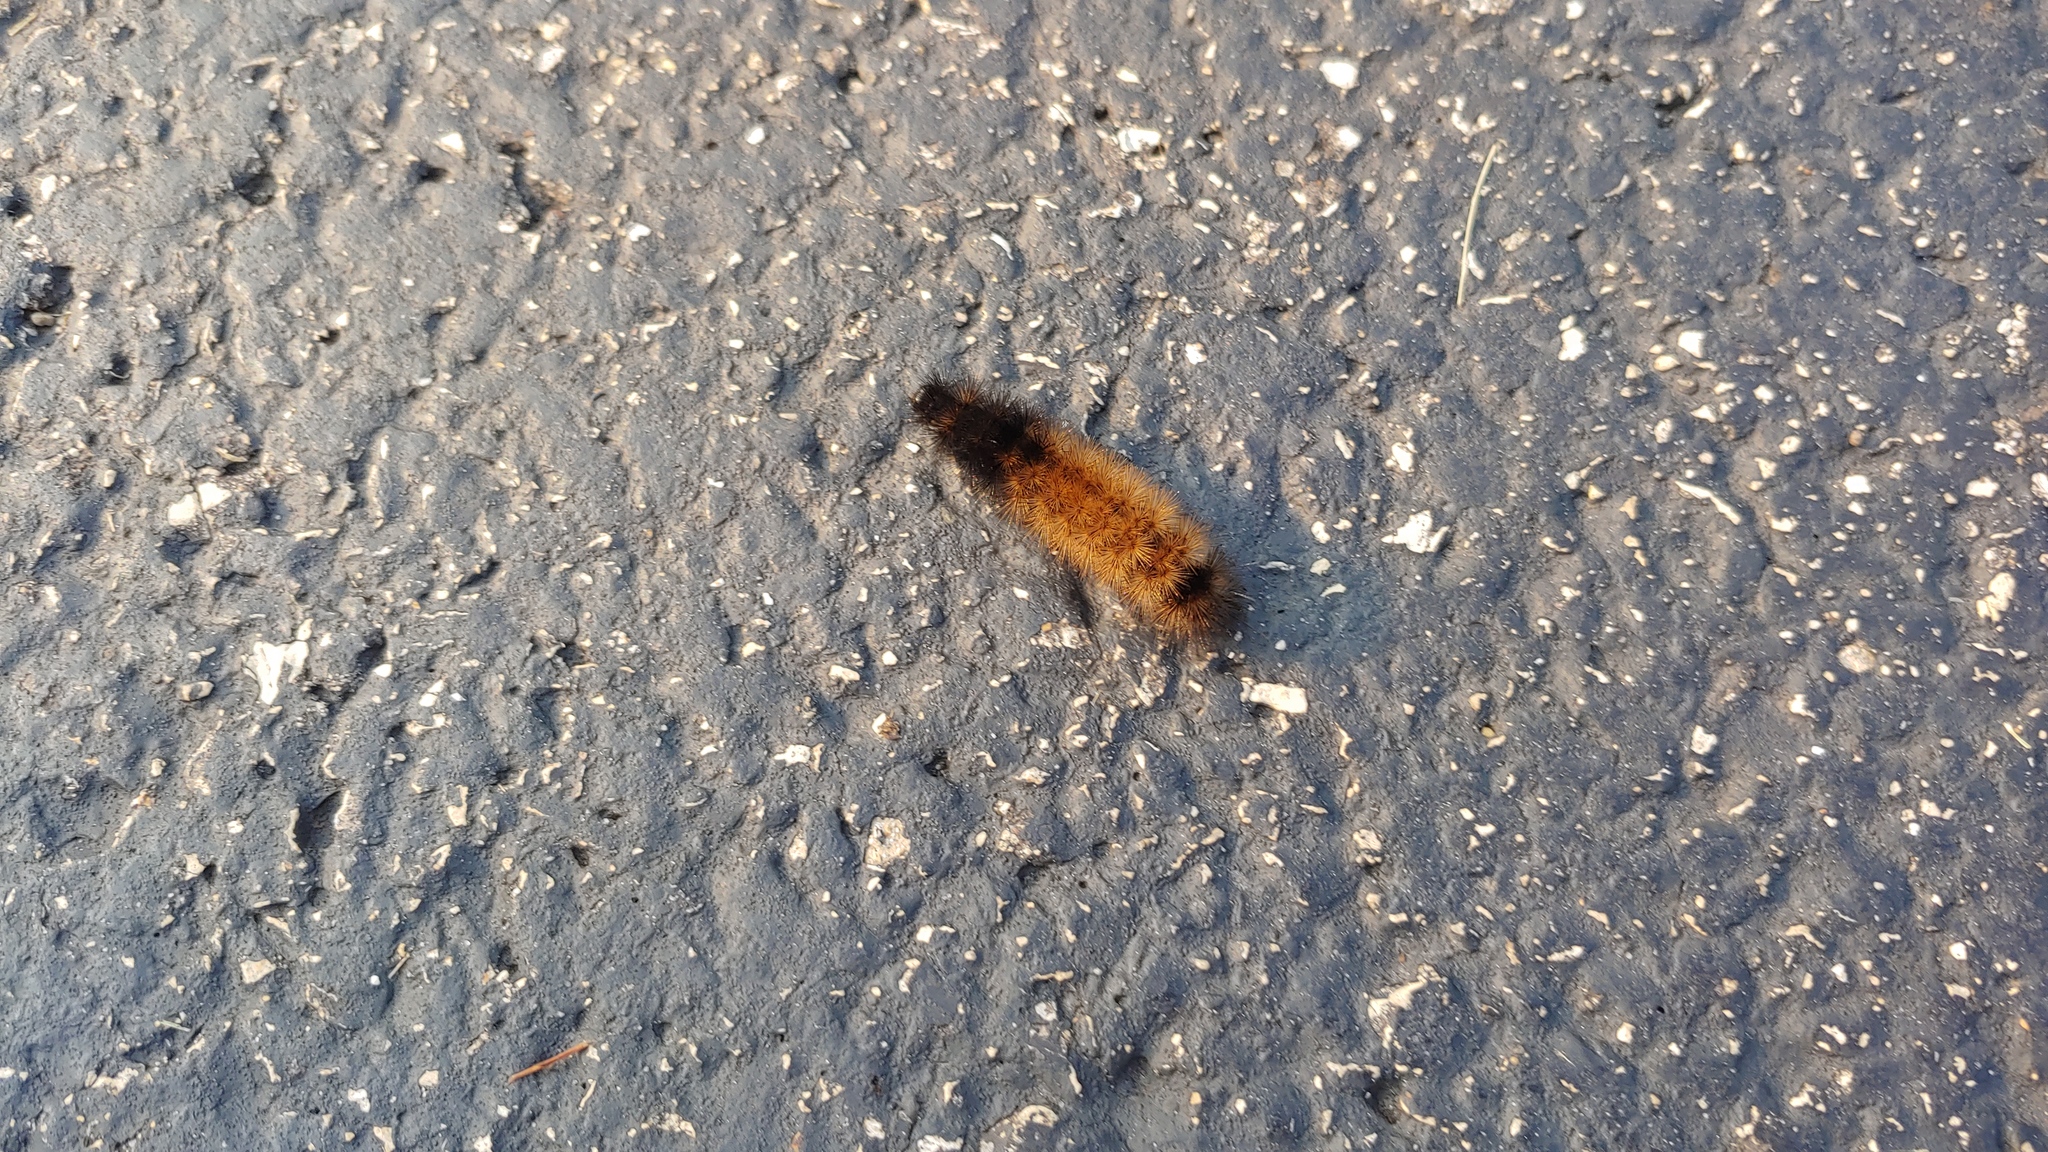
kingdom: Animalia
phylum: Arthropoda
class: Insecta
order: Lepidoptera
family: Erebidae
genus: Pyrrharctia
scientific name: Pyrrharctia isabella
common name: Isabella tiger moth
